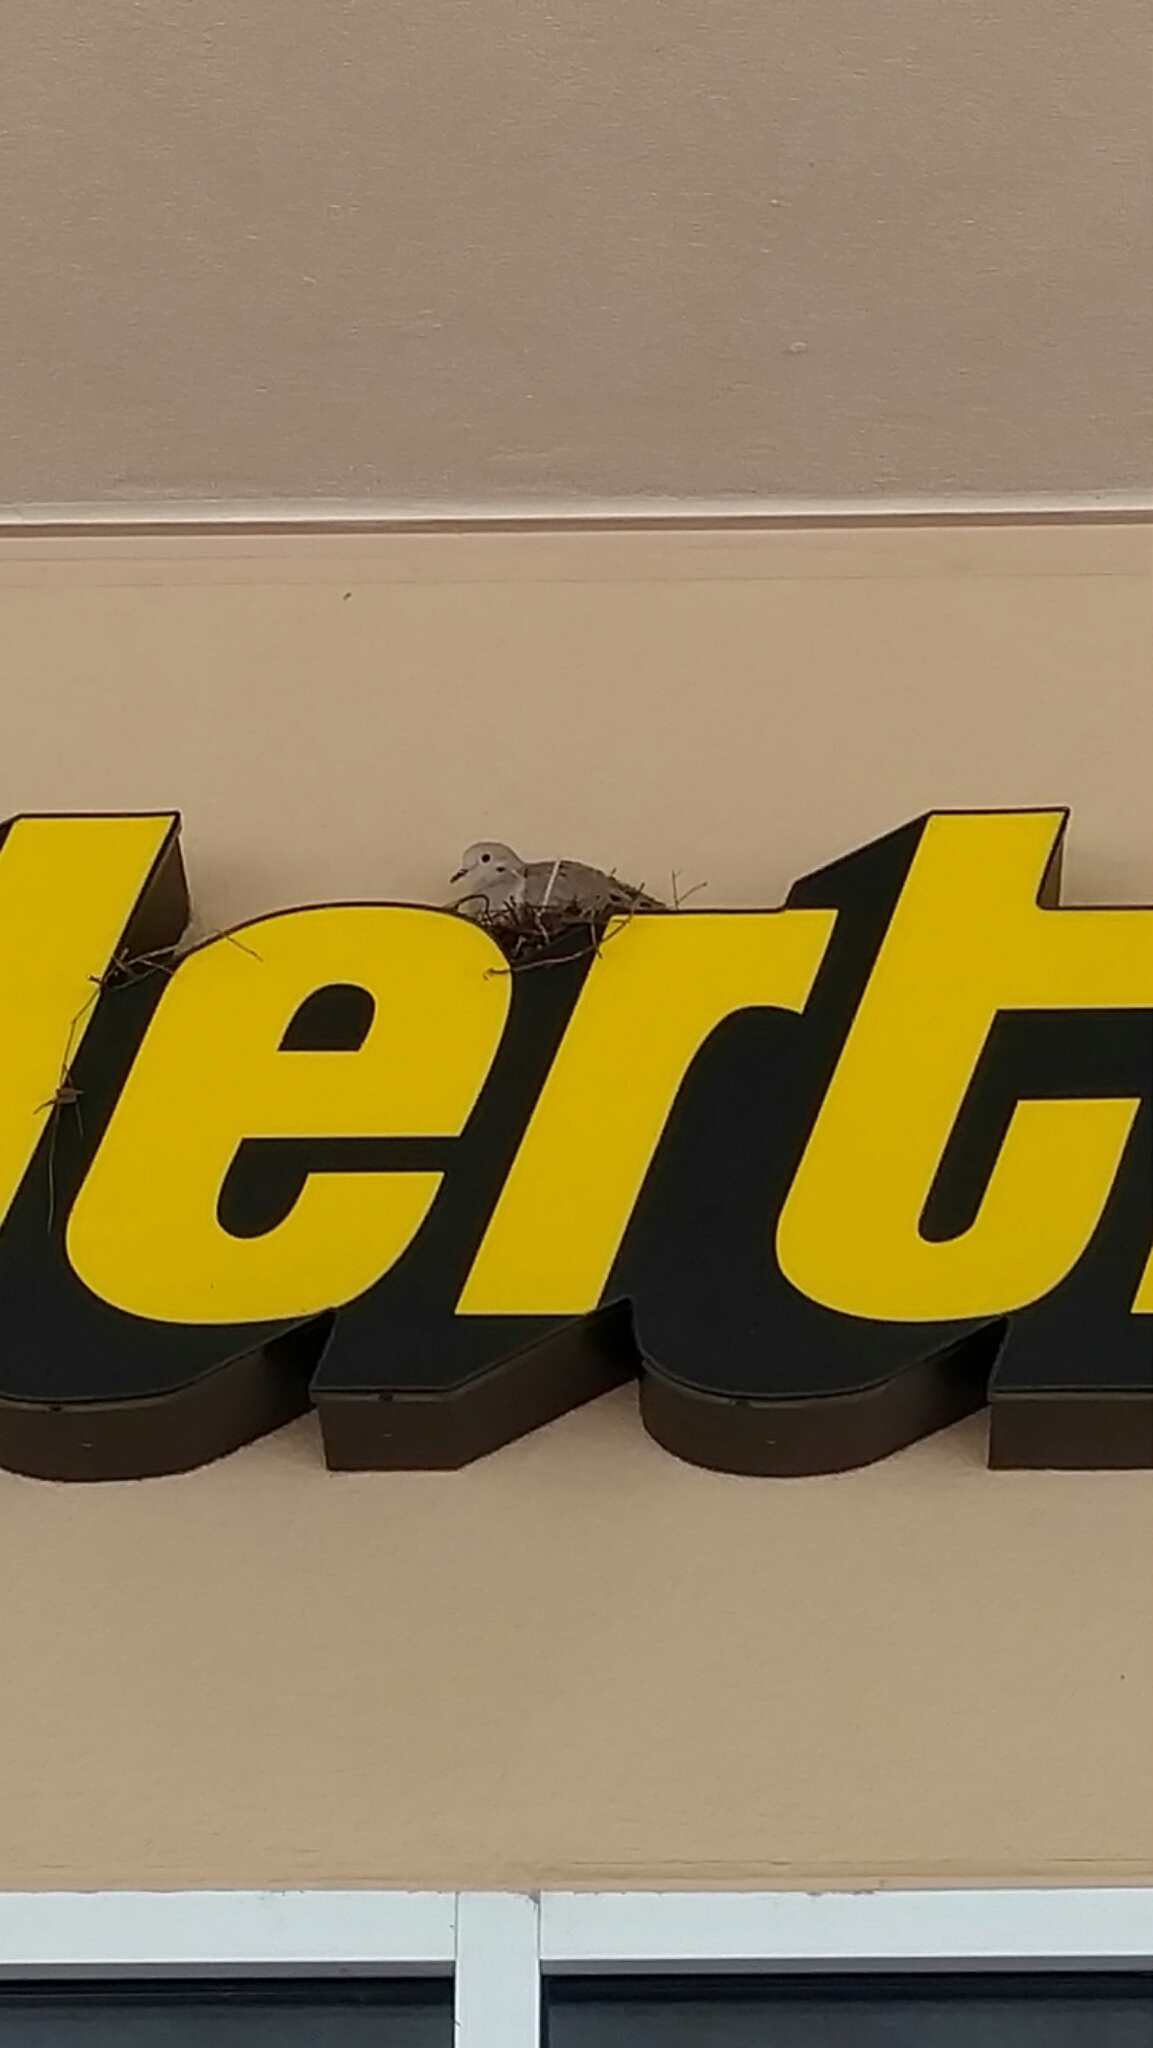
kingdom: Animalia
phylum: Chordata
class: Aves
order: Columbiformes
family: Columbidae
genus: Zenaida
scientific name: Zenaida macroura
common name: Mourning dove
